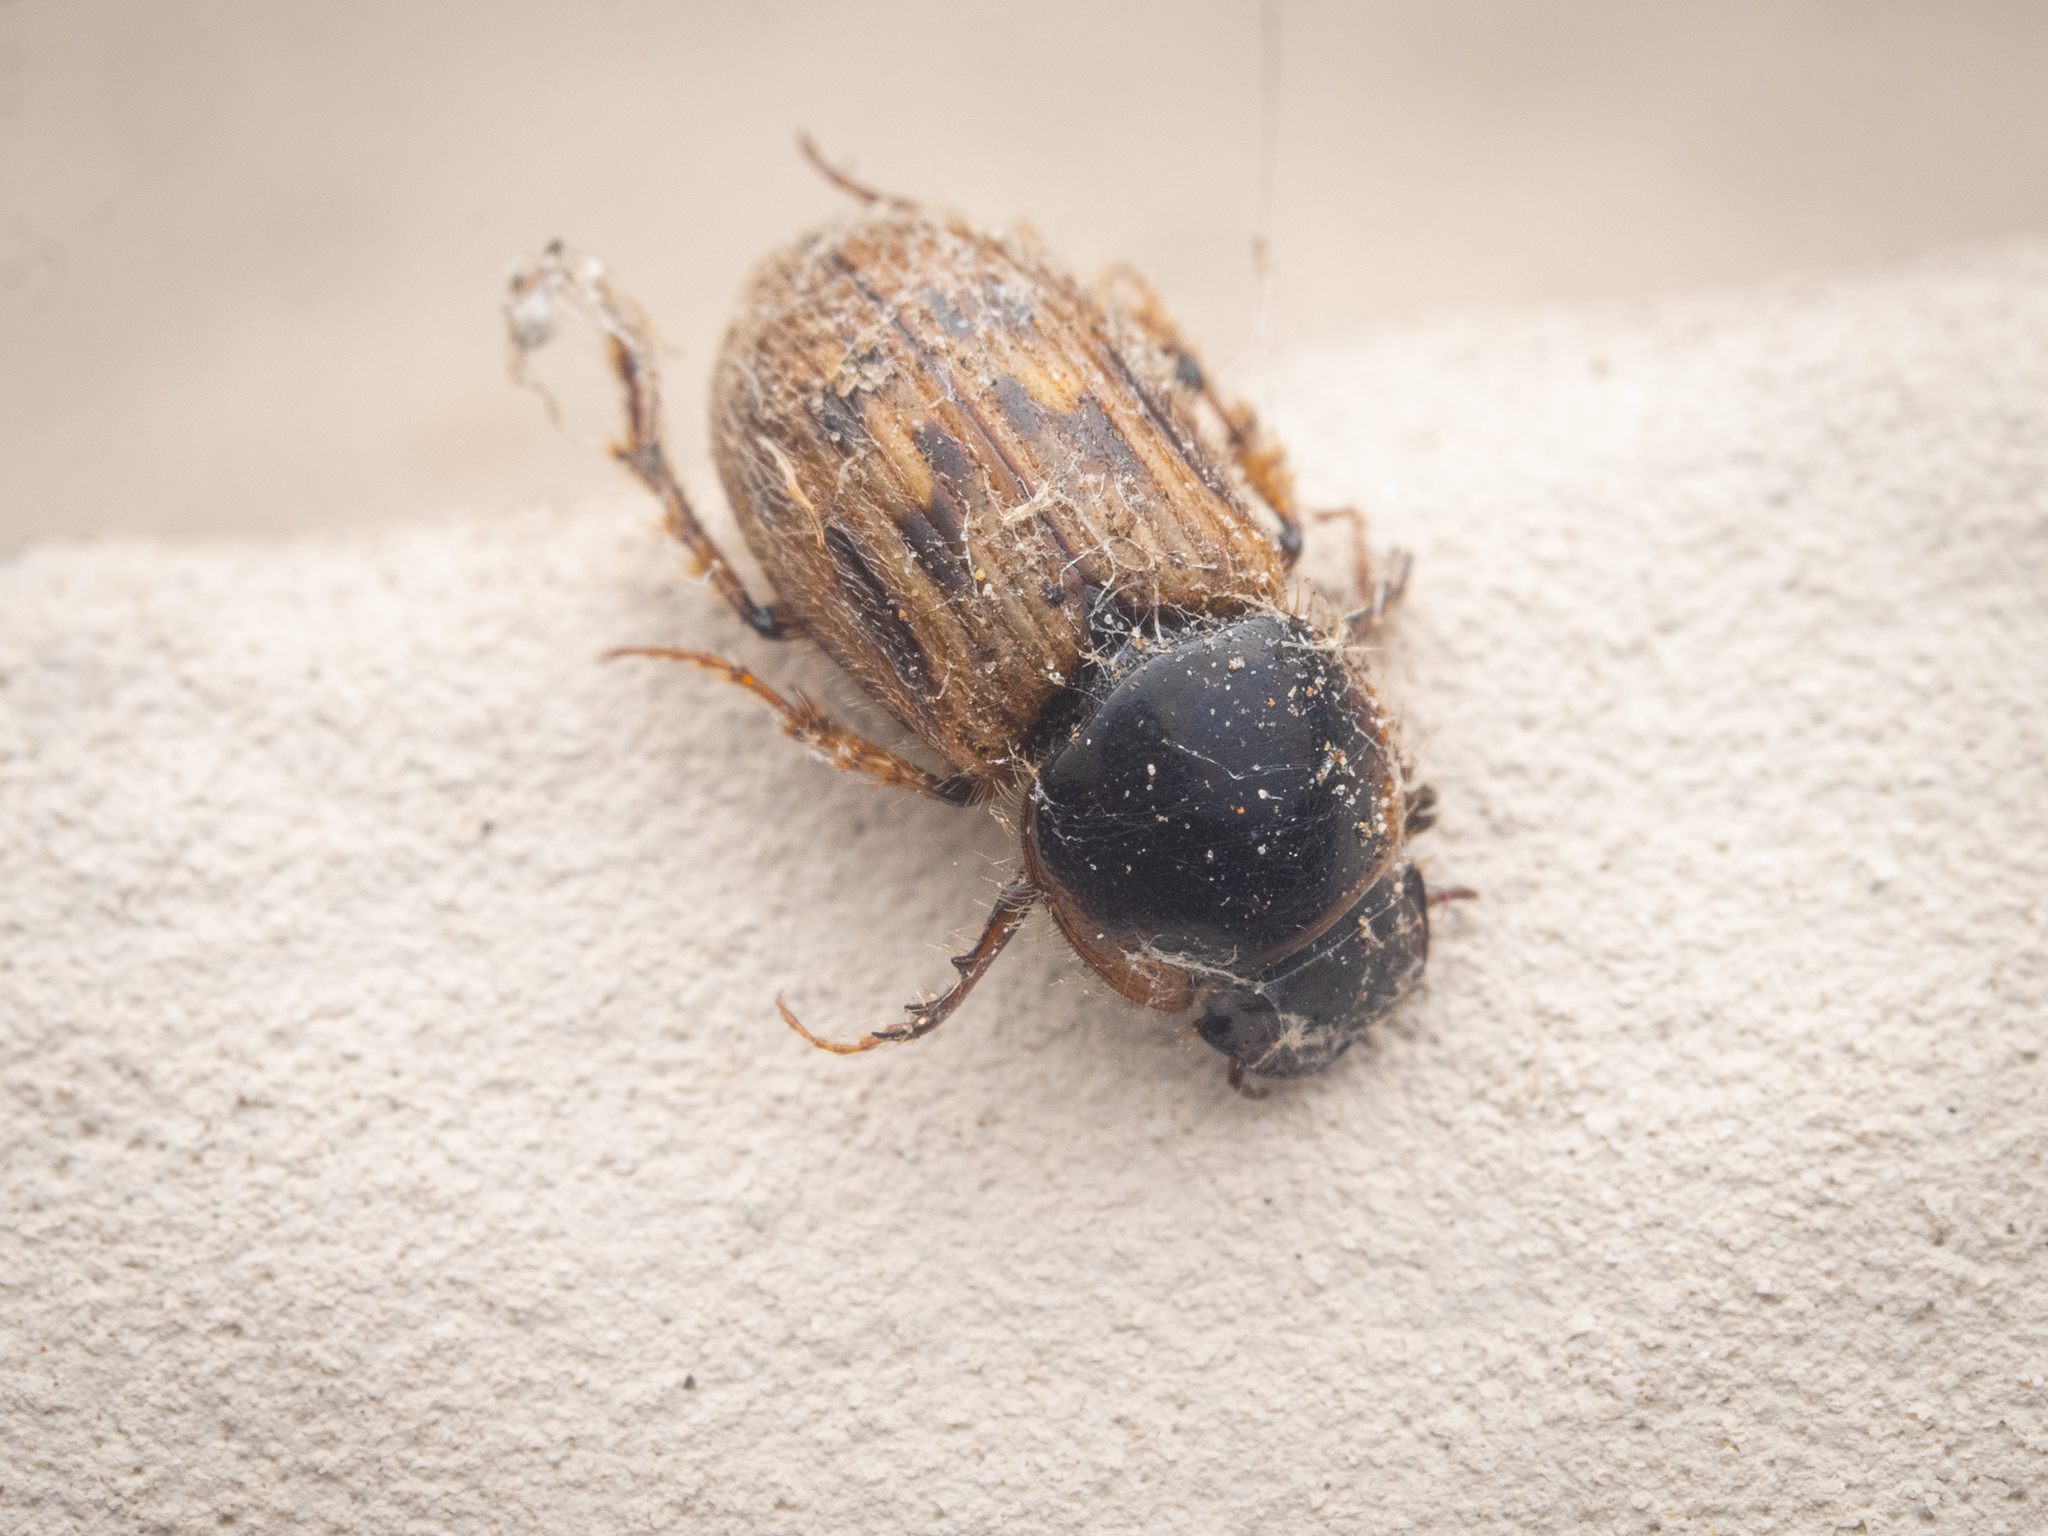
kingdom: Animalia
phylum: Arthropoda
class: Insecta
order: Coleoptera
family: Scarabaeidae
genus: Nimbus
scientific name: Nimbus contaminatus
